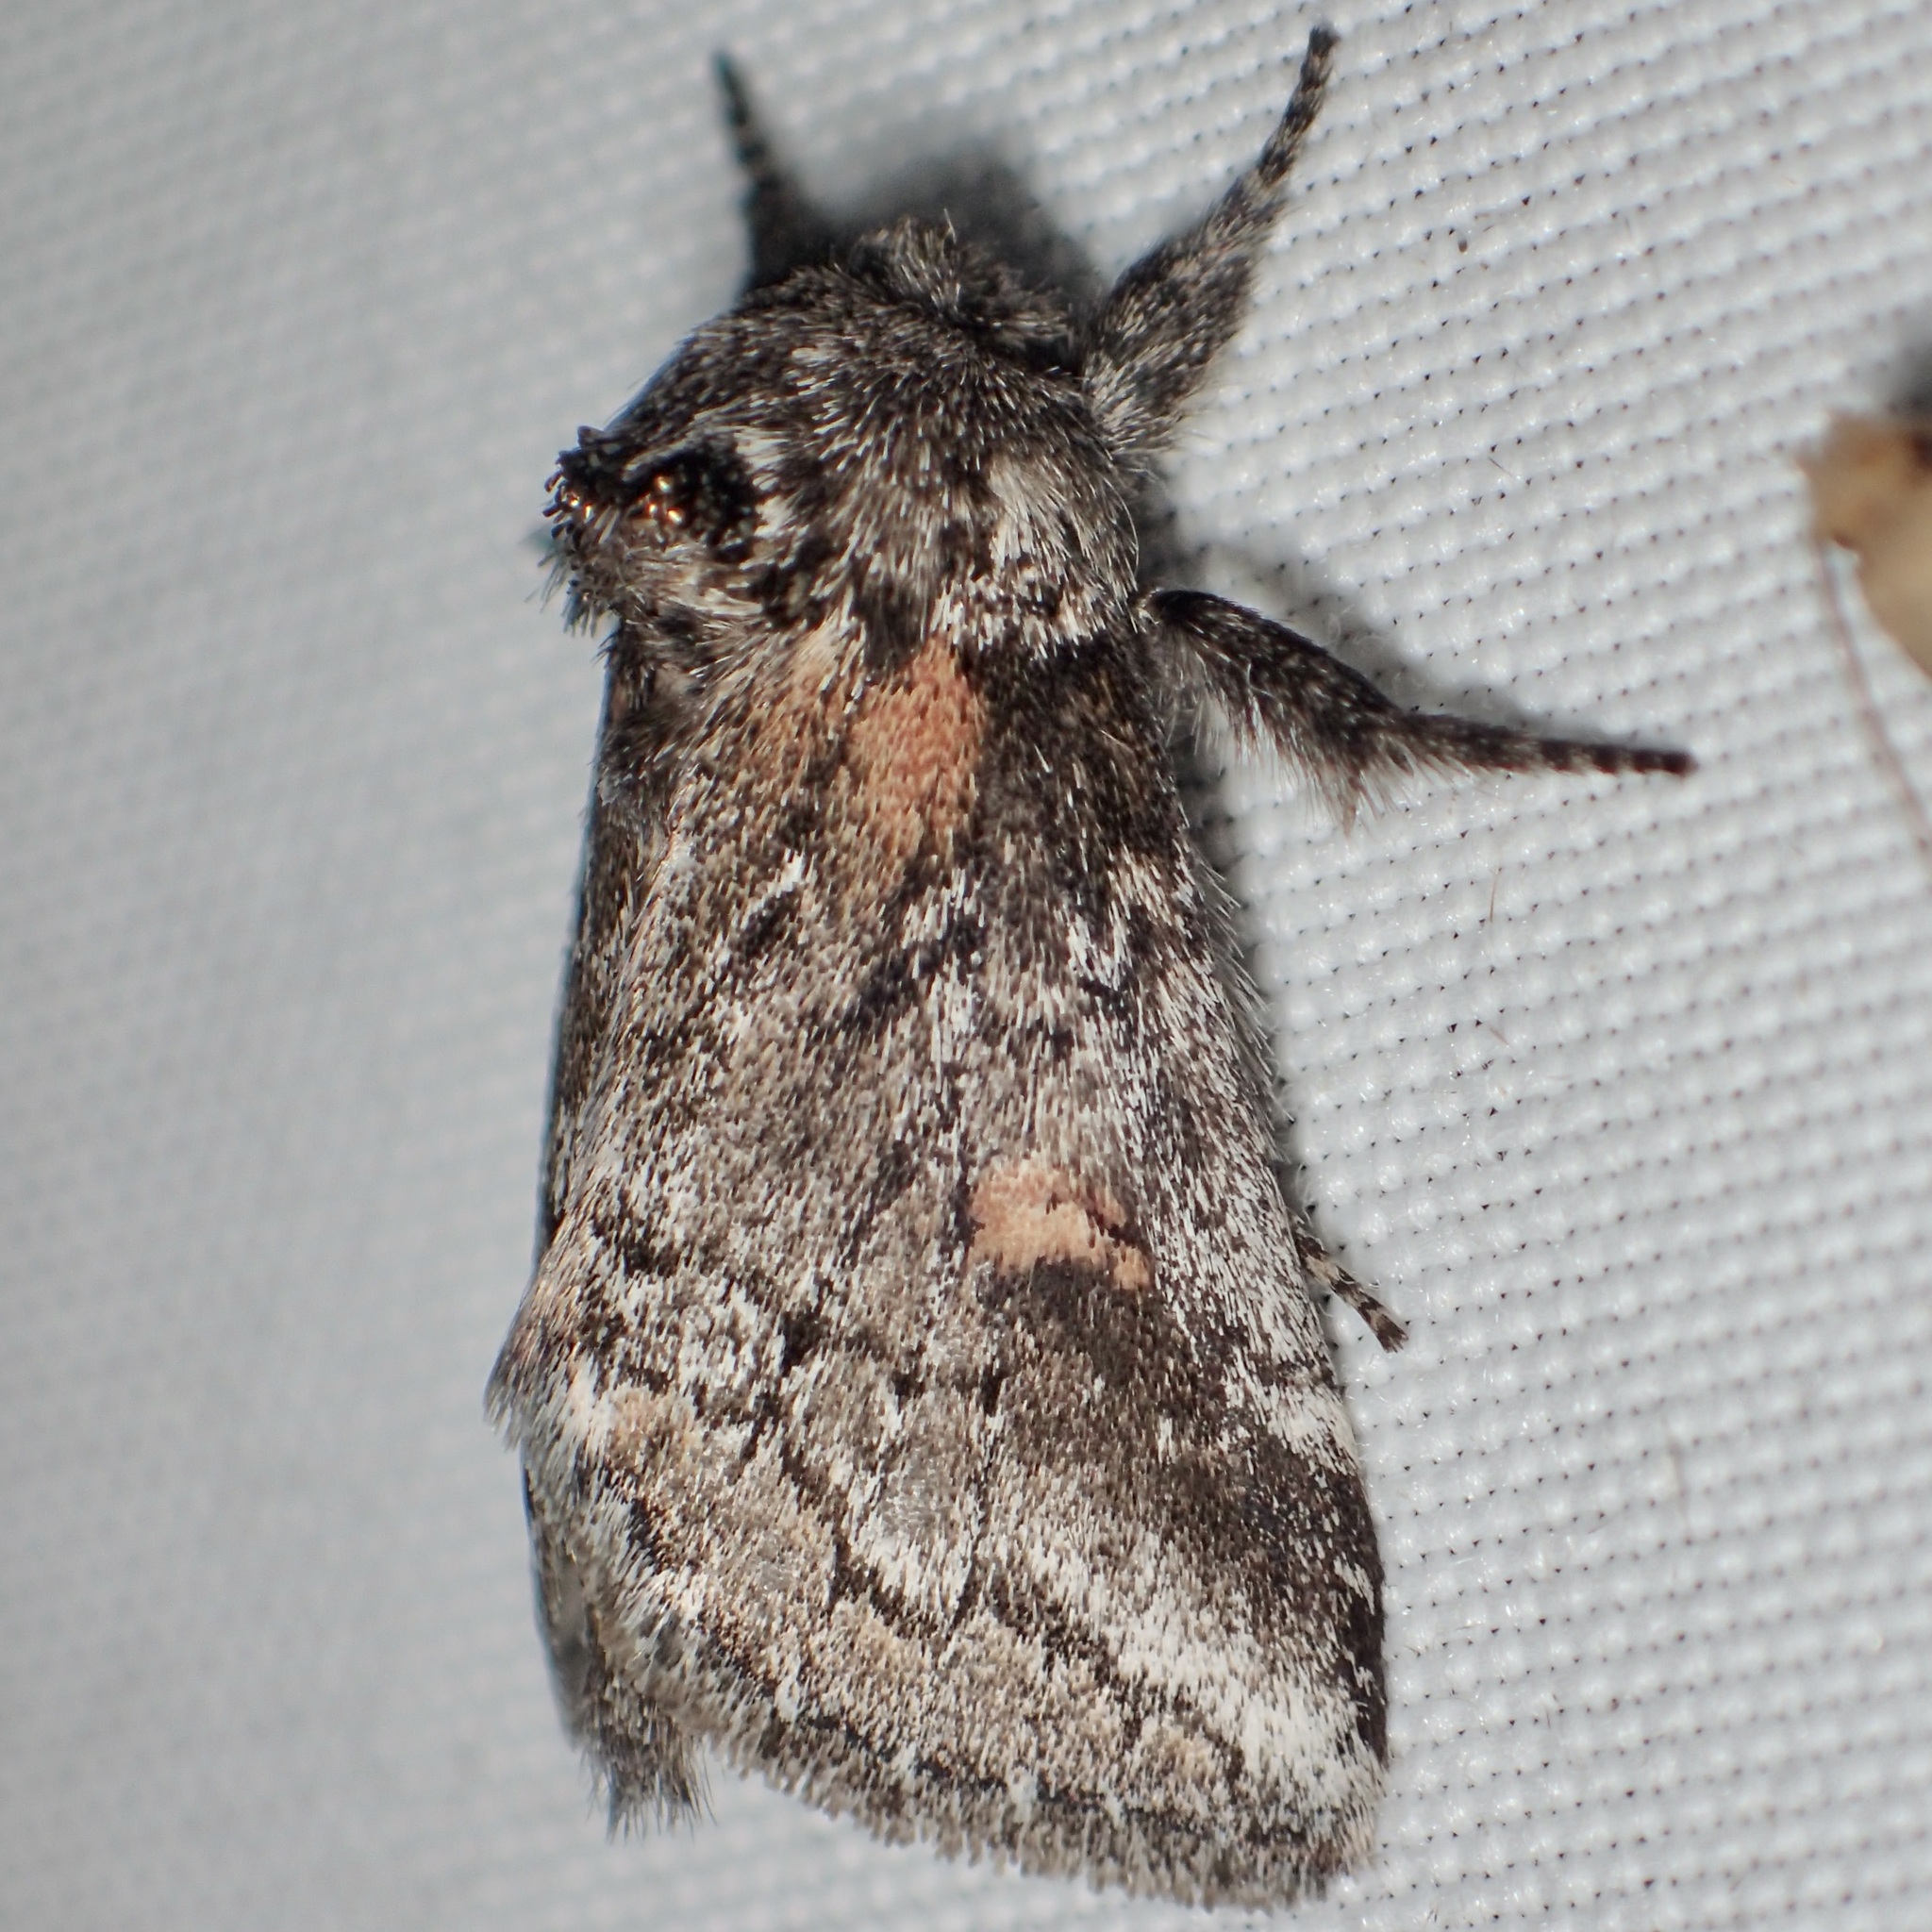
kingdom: Animalia
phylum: Arthropoda
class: Insecta
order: Lepidoptera
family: Notodontidae
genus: Kalkoma
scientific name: Kalkoma zapata
